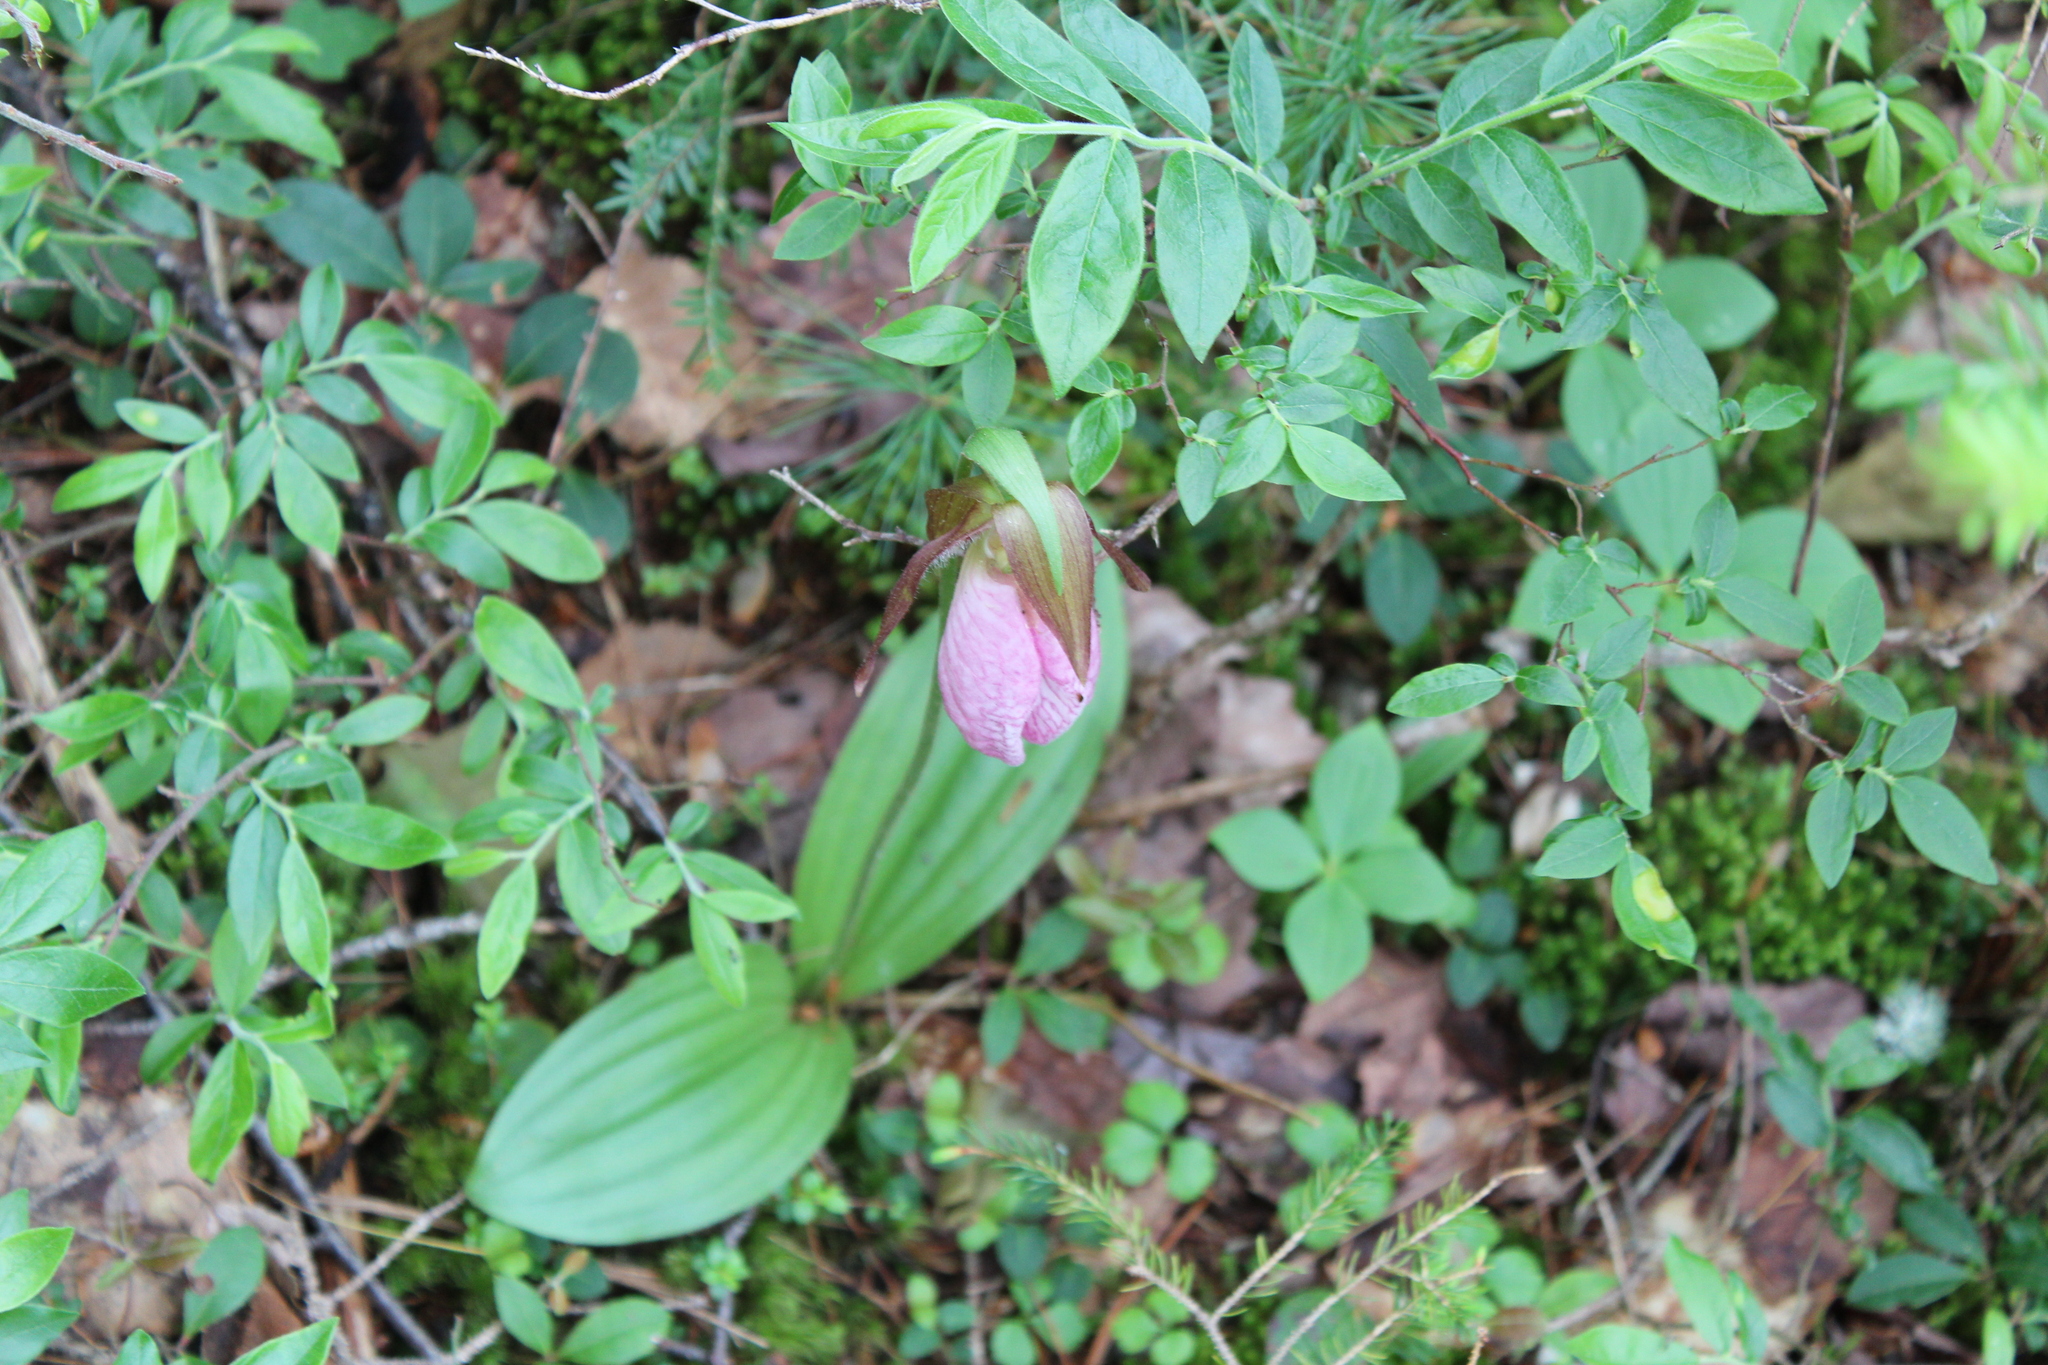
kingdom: Plantae
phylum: Tracheophyta
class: Liliopsida
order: Asparagales
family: Orchidaceae
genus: Cypripedium
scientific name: Cypripedium acaule
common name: Pink lady's-slipper
